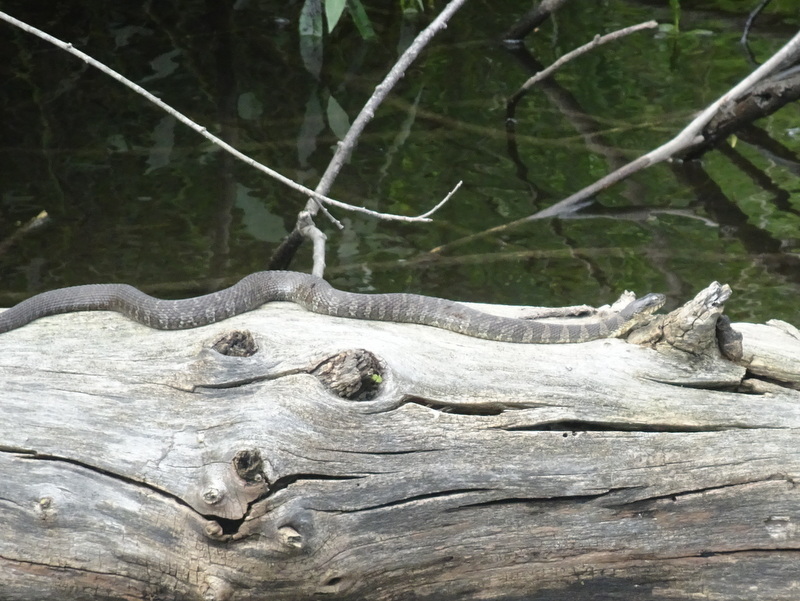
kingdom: Animalia
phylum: Chordata
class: Squamata
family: Colubridae
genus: Nerodia
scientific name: Nerodia sipedon
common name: Northern water snake
